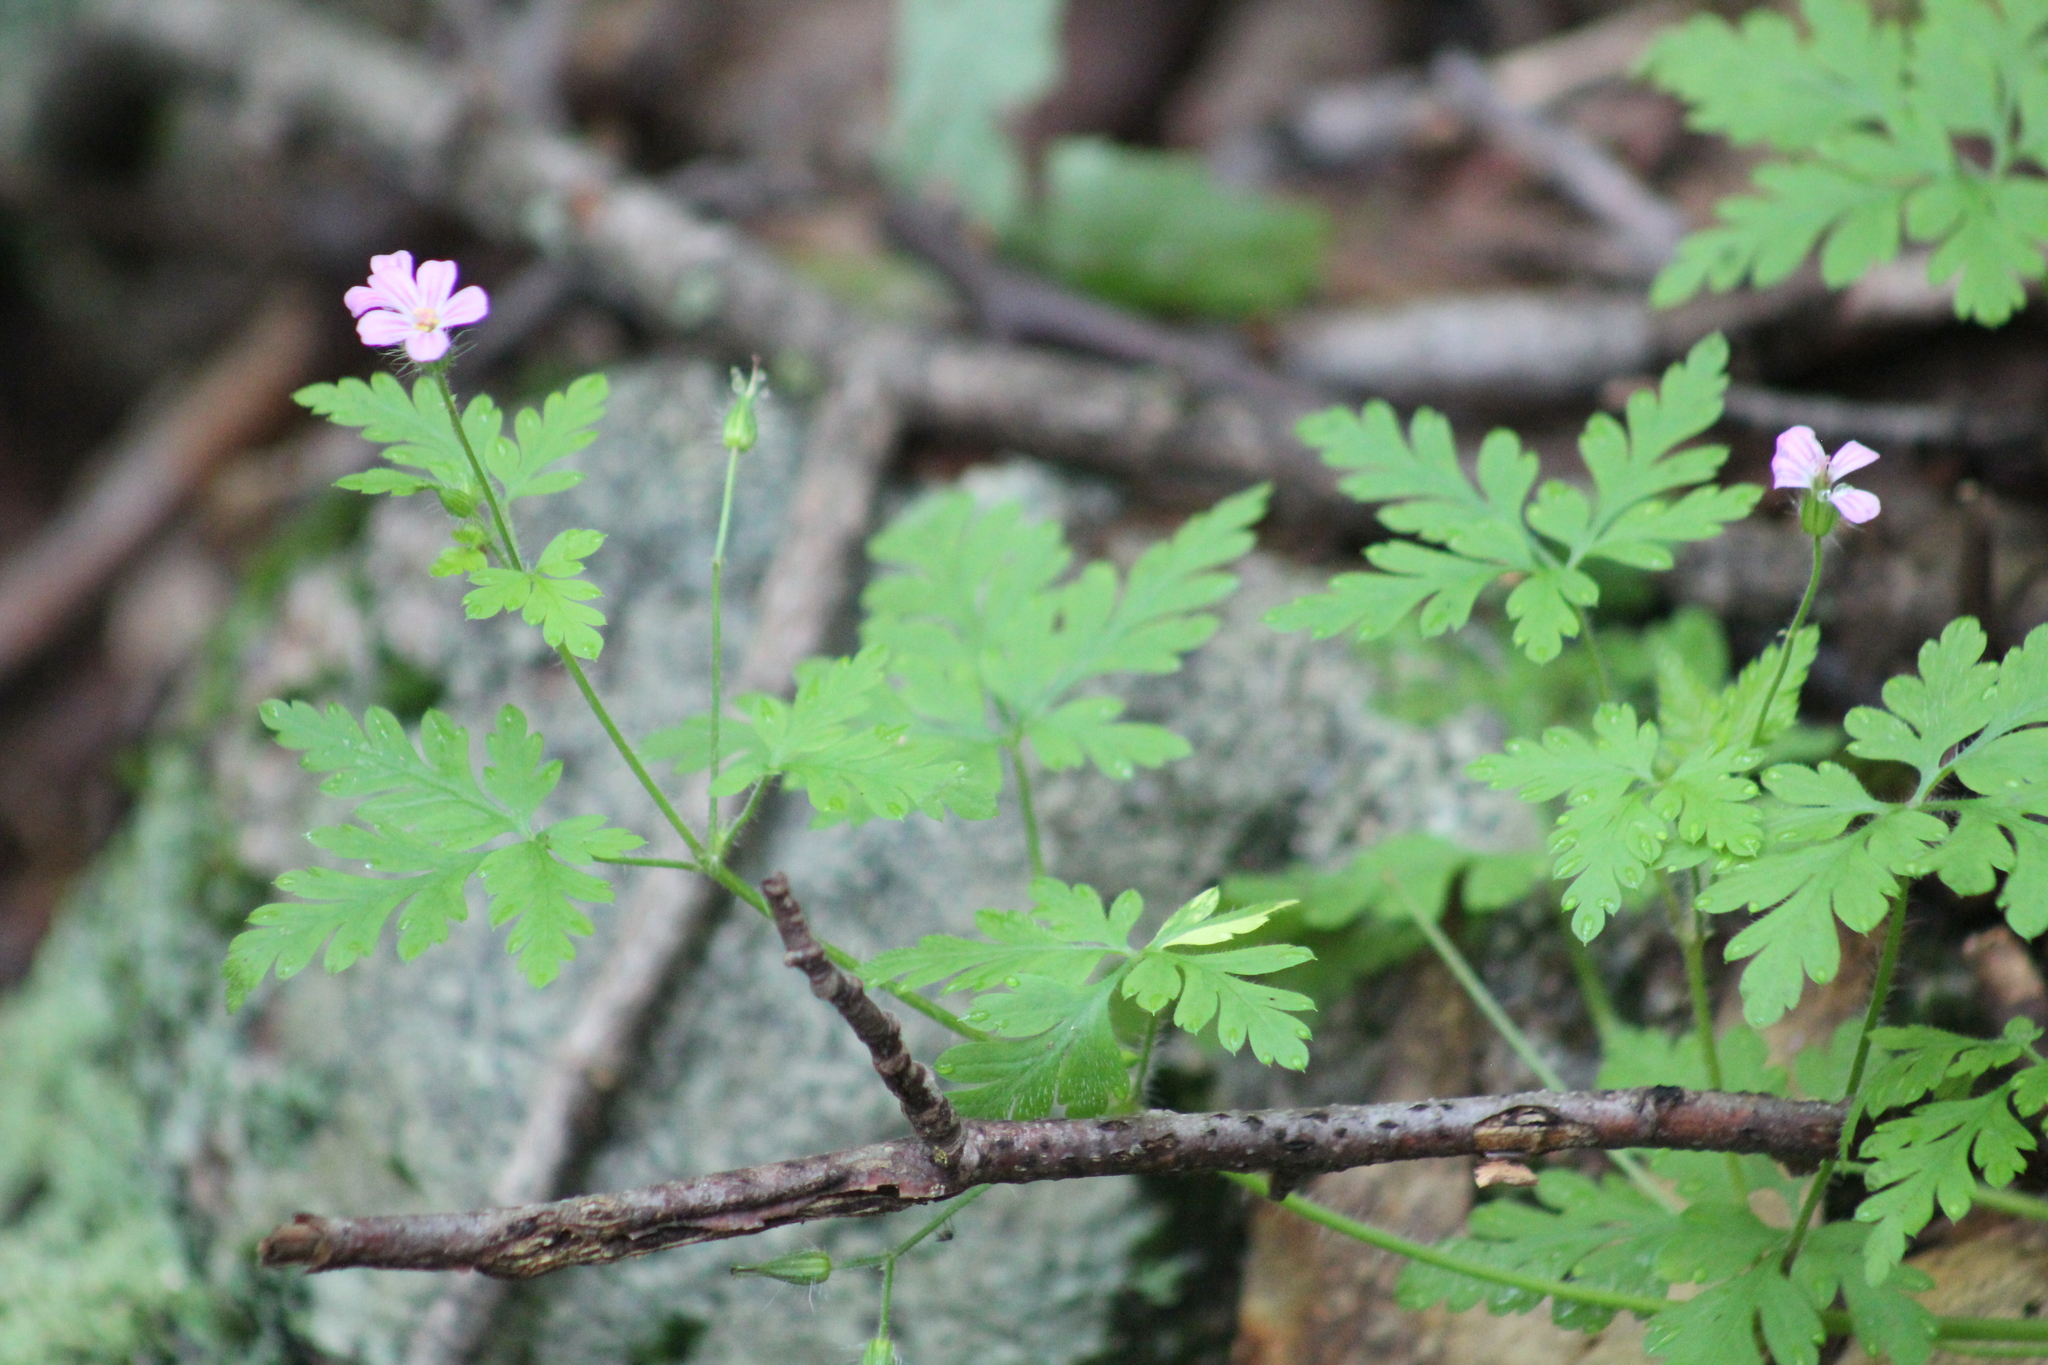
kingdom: Plantae
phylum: Tracheophyta
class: Magnoliopsida
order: Geraniales
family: Geraniaceae
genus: Geranium
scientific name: Geranium robertianum
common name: Herb-robert
